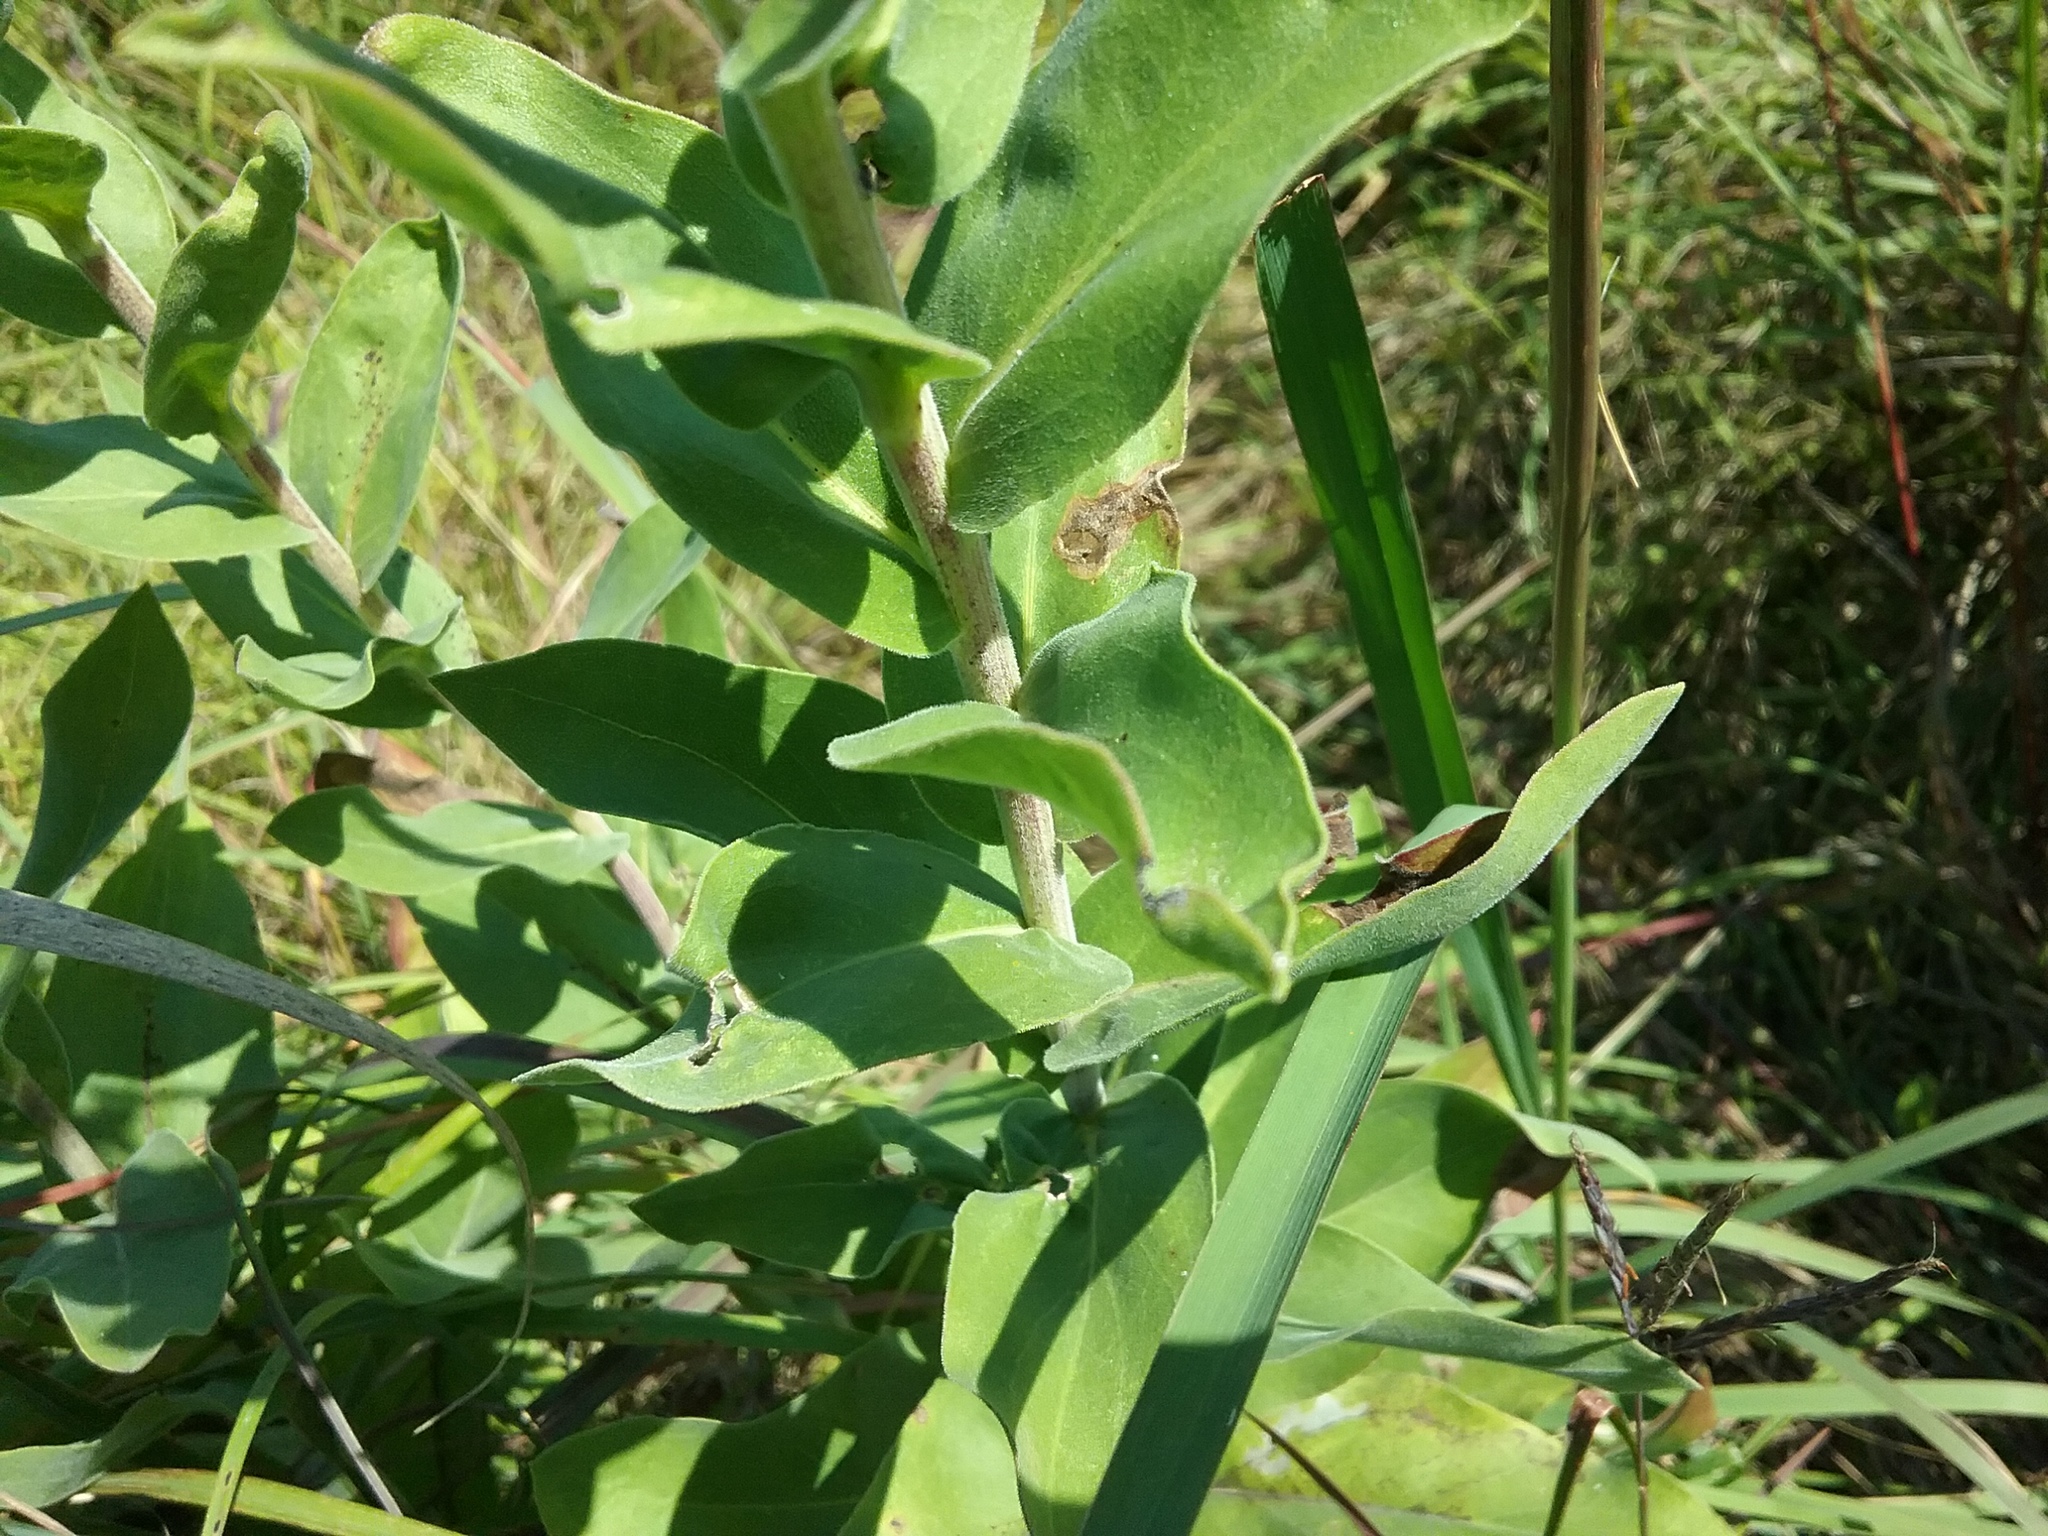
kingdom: Plantae
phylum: Tracheophyta
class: Magnoliopsida
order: Asterales
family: Asteraceae
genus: Solidago
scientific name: Solidago rigida
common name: Rigid goldenrod
